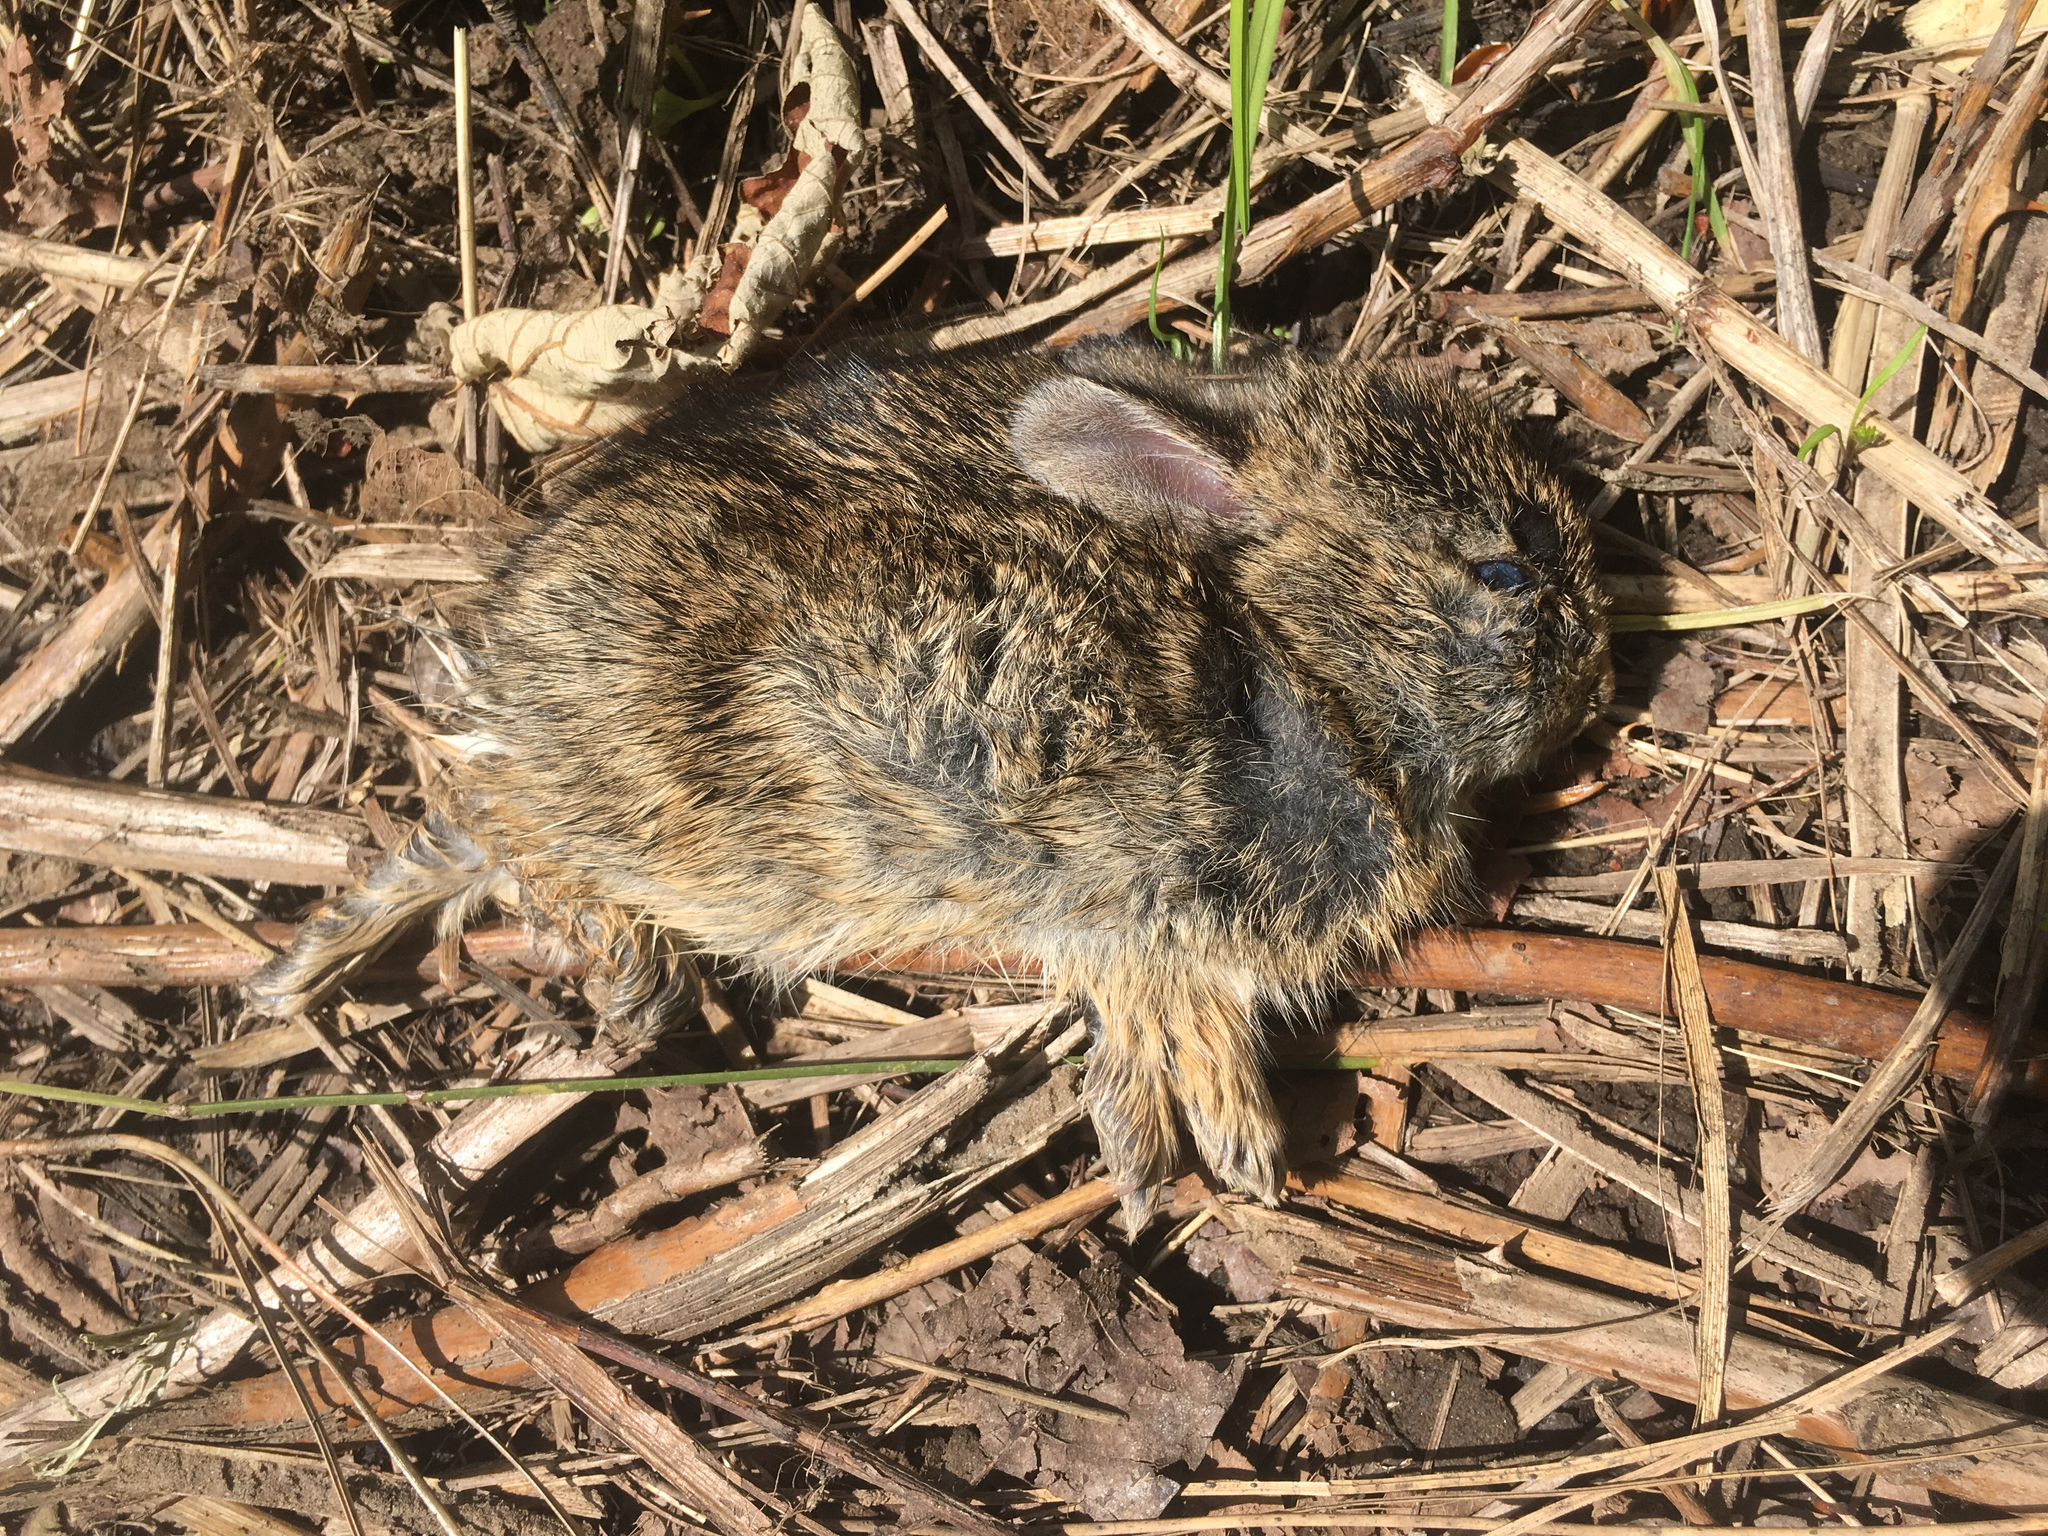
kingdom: Animalia
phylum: Chordata
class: Mammalia
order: Lagomorpha
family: Leporidae
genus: Sylvilagus
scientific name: Sylvilagus bachmani
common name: Brush rabbit
